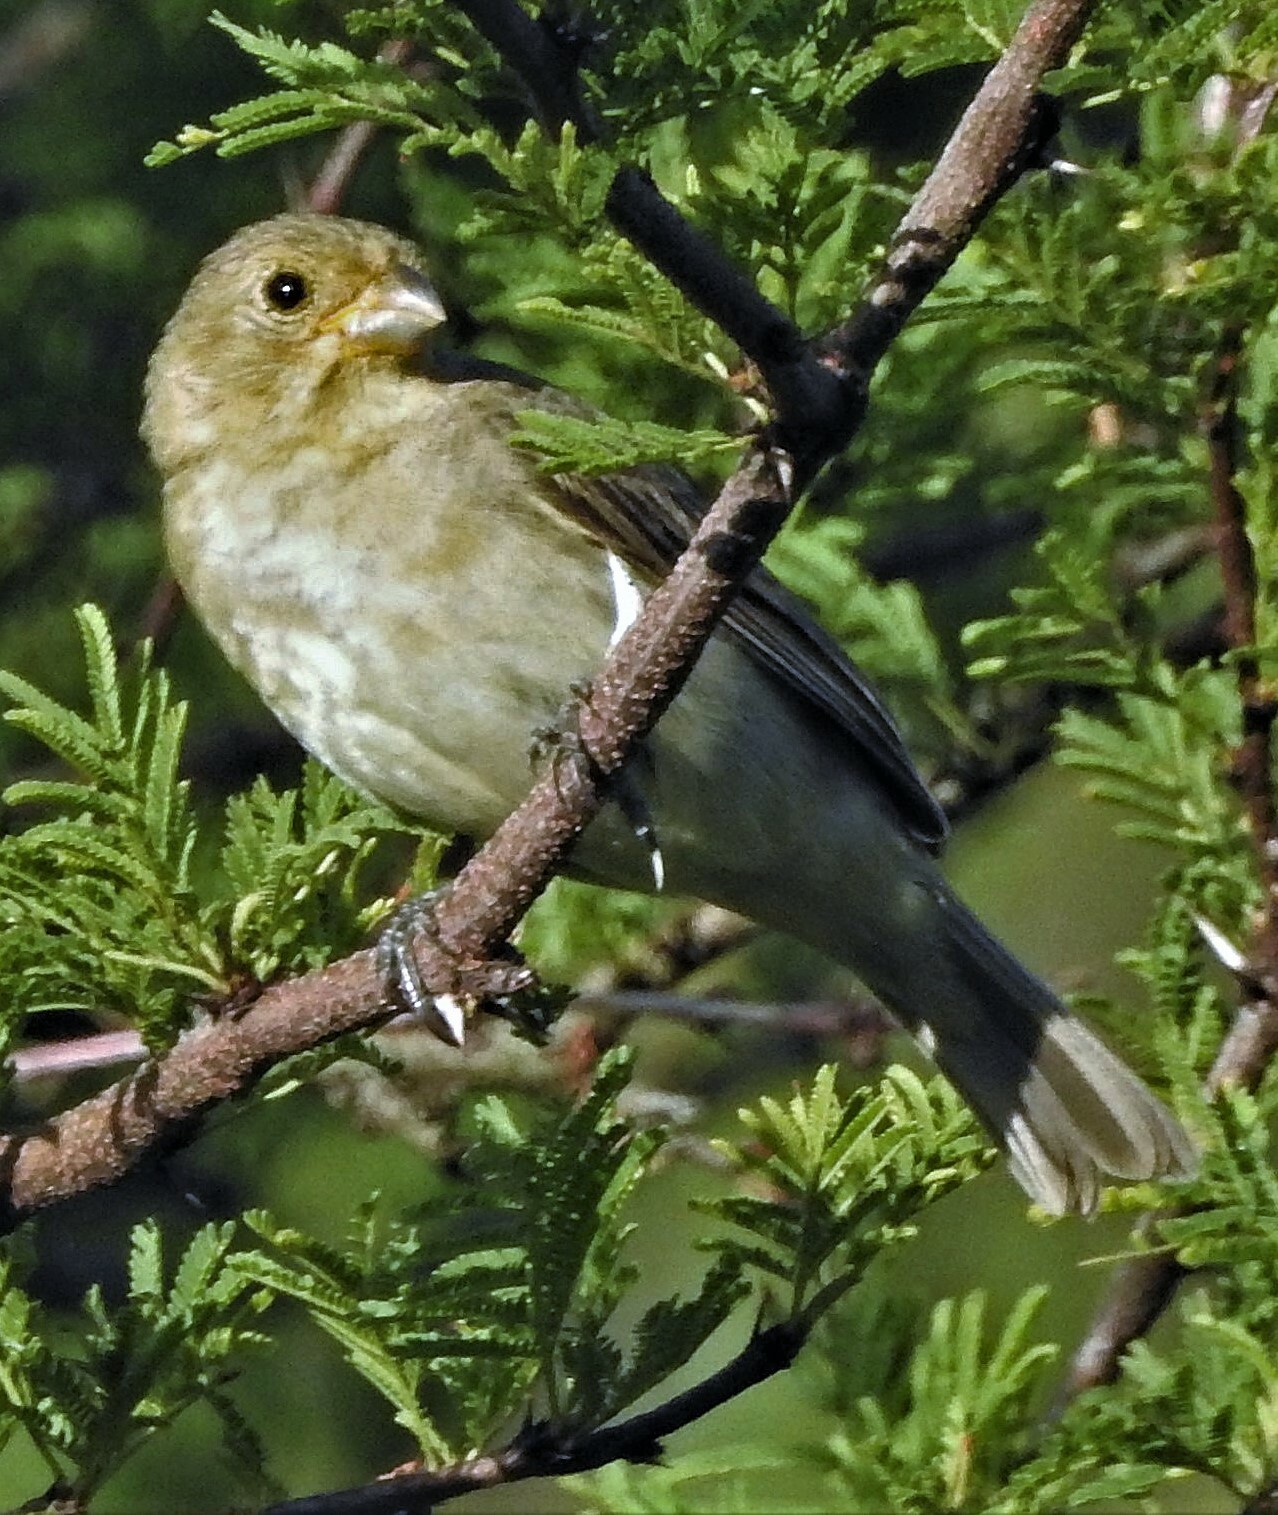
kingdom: Animalia
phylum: Chordata
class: Aves
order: Passeriformes
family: Thraupidae
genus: Sporophila
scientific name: Sporophila caerulescens
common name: Double-collared seedeater
